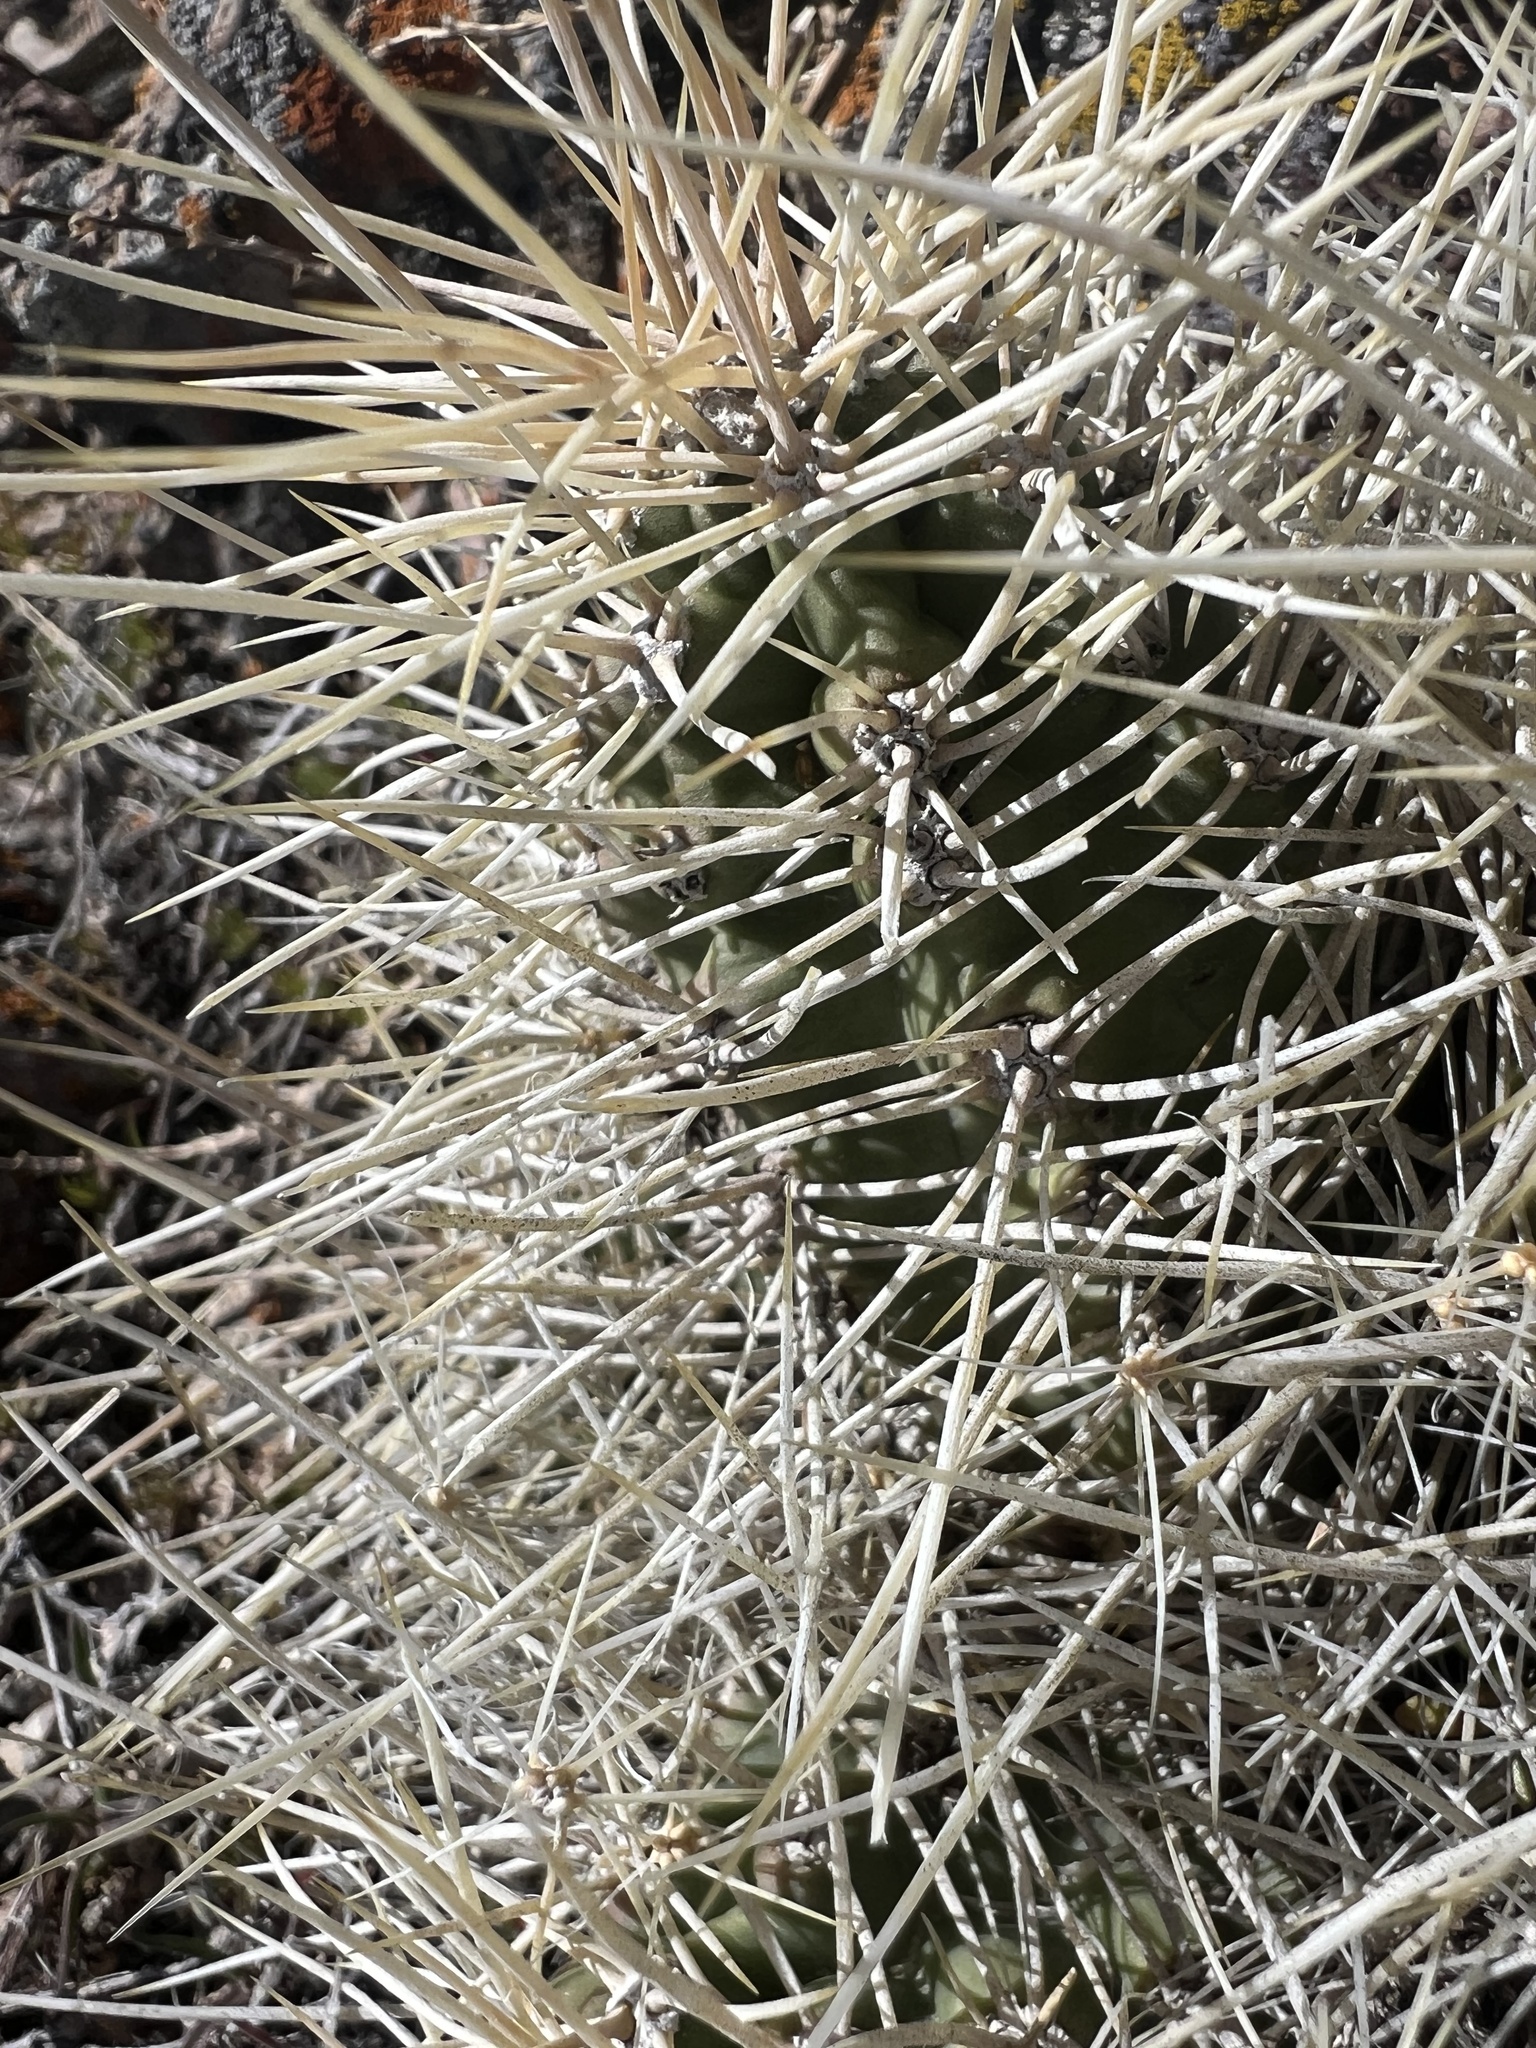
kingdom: Plantae
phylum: Tracheophyta
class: Magnoliopsida
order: Caryophyllales
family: Cactaceae
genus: Echinocereus
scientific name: Echinocereus triglochidiatus
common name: Claretcup hedgehog
